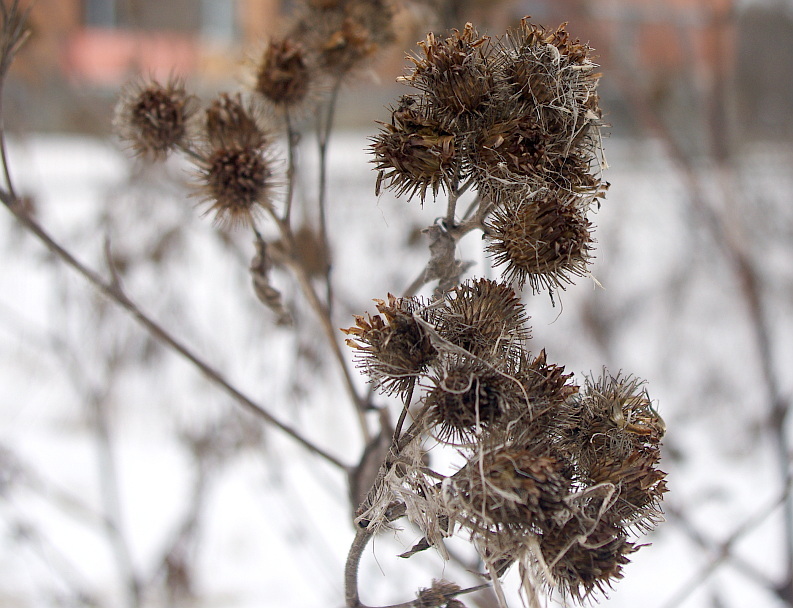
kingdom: Plantae
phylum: Tracheophyta
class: Magnoliopsida
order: Asterales
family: Asteraceae
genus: Arctium
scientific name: Arctium tomentosum
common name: Woolly burdock
